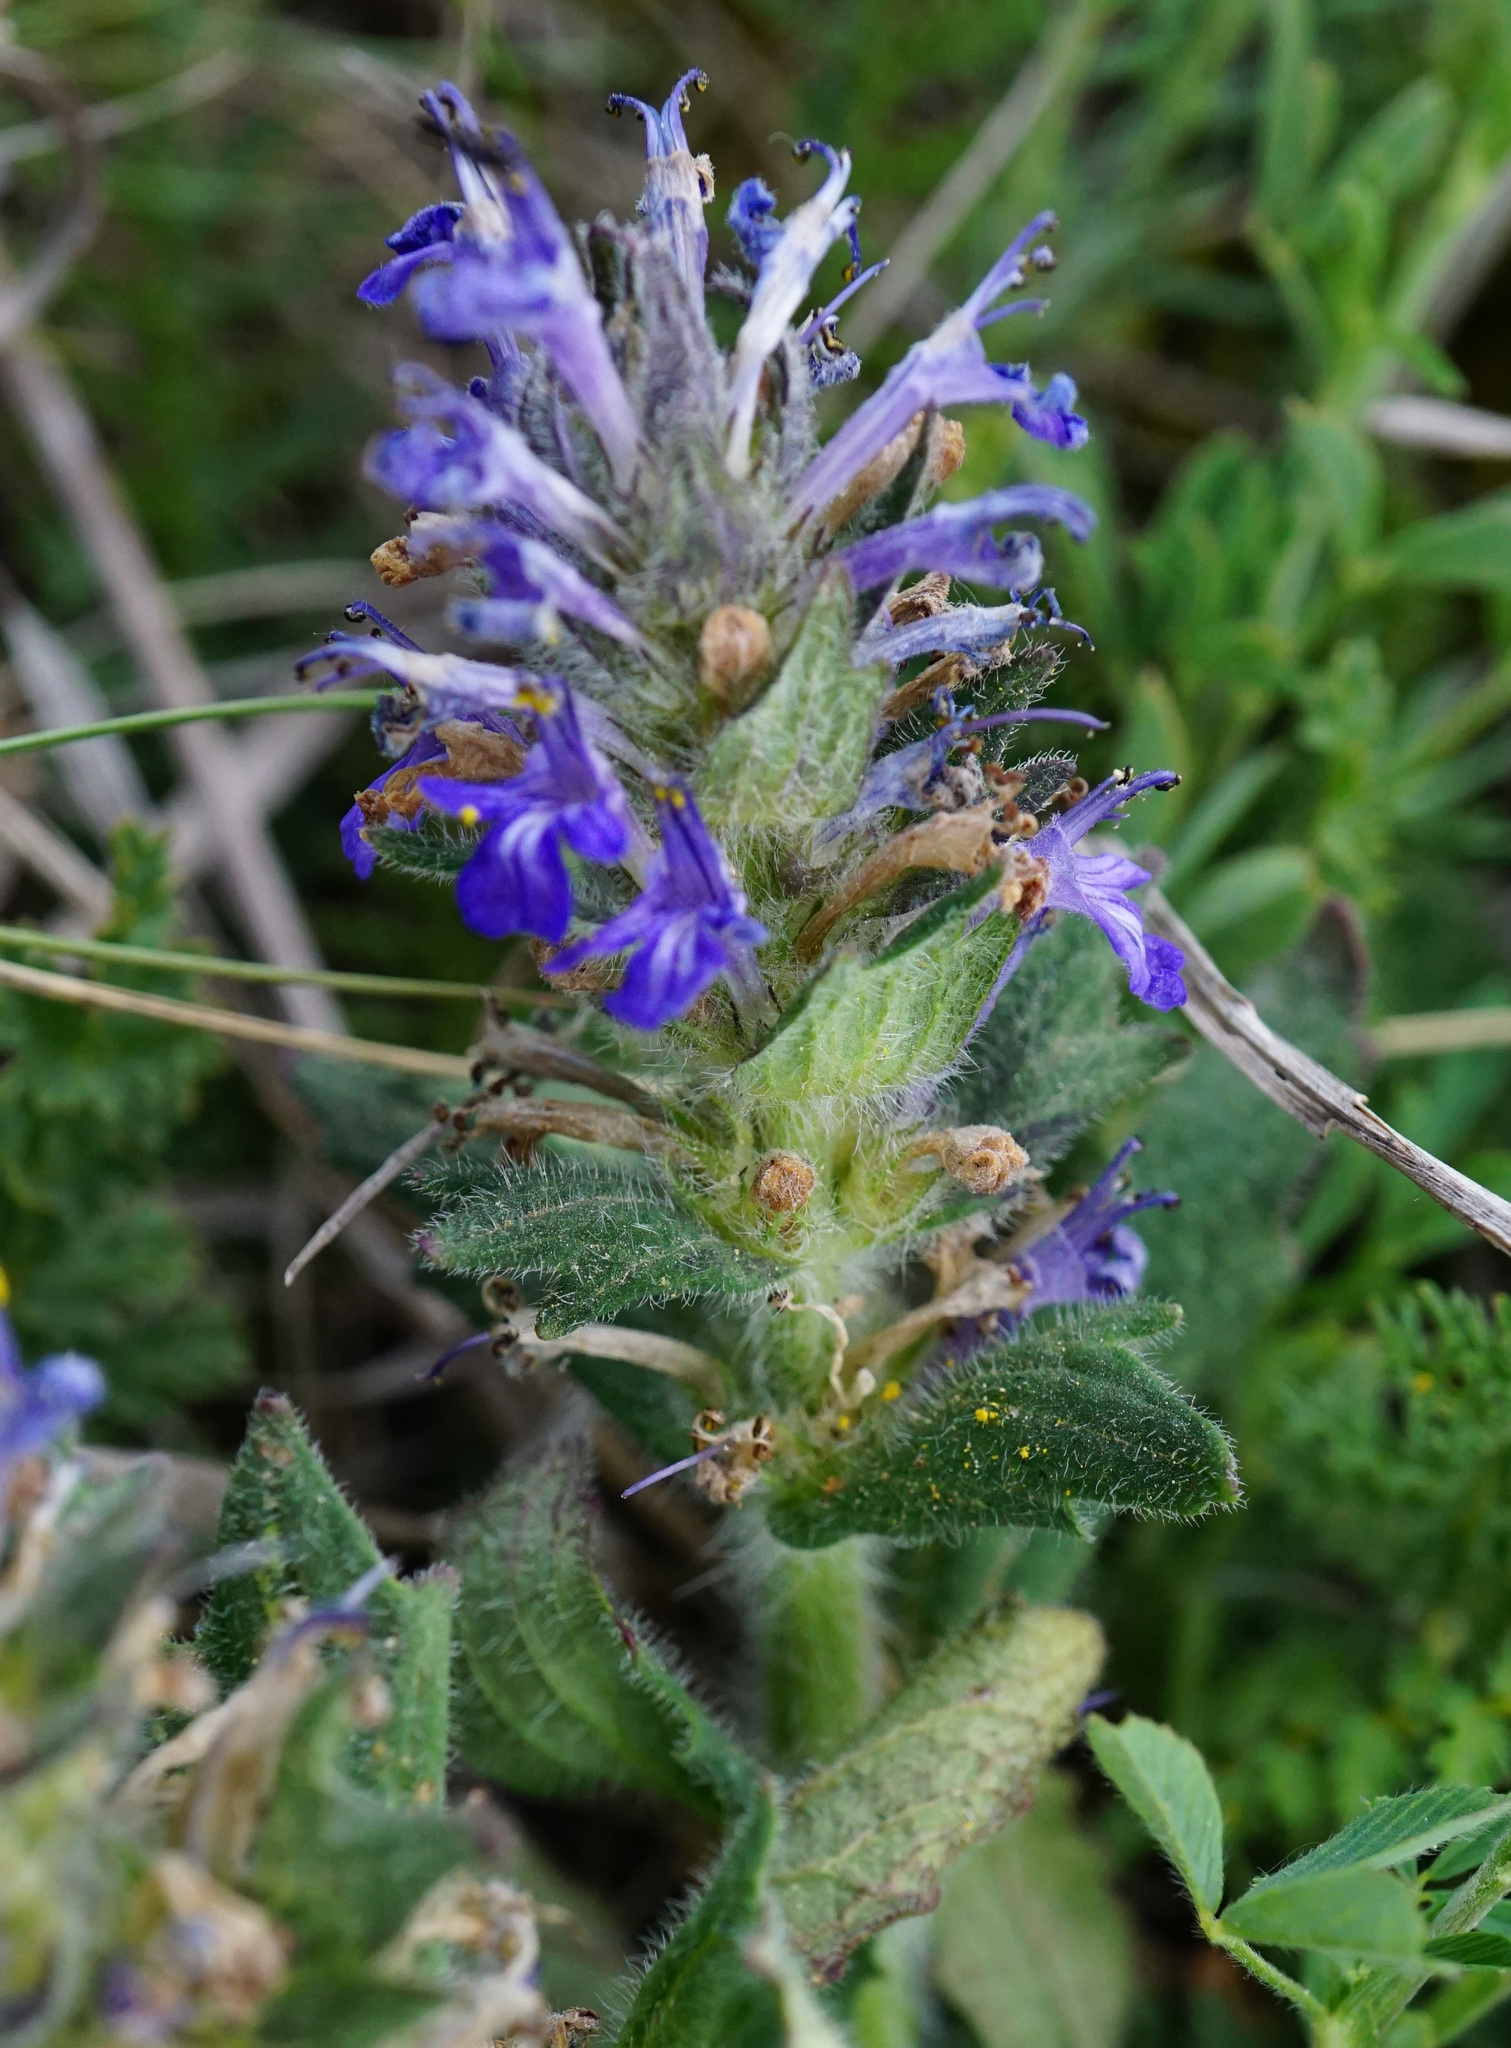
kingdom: Plantae
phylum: Tracheophyta
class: Magnoliopsida
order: Lamiales
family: Lamiaceae
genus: Ajuga
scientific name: Ajuga genevensis
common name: Blue bugle
